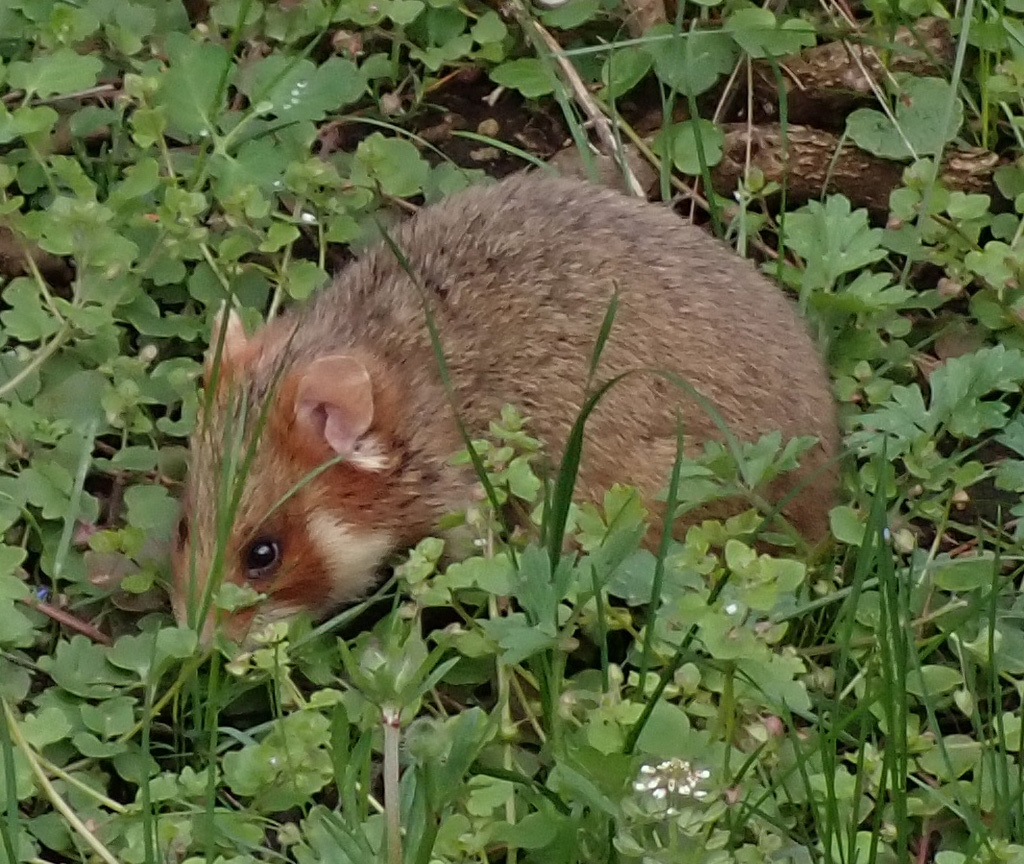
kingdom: Animalia
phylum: Chordata
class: Mammalia
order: Rodentia
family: Cricetidae
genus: Cricetus
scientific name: Cricetus cricetus
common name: Common hamster
